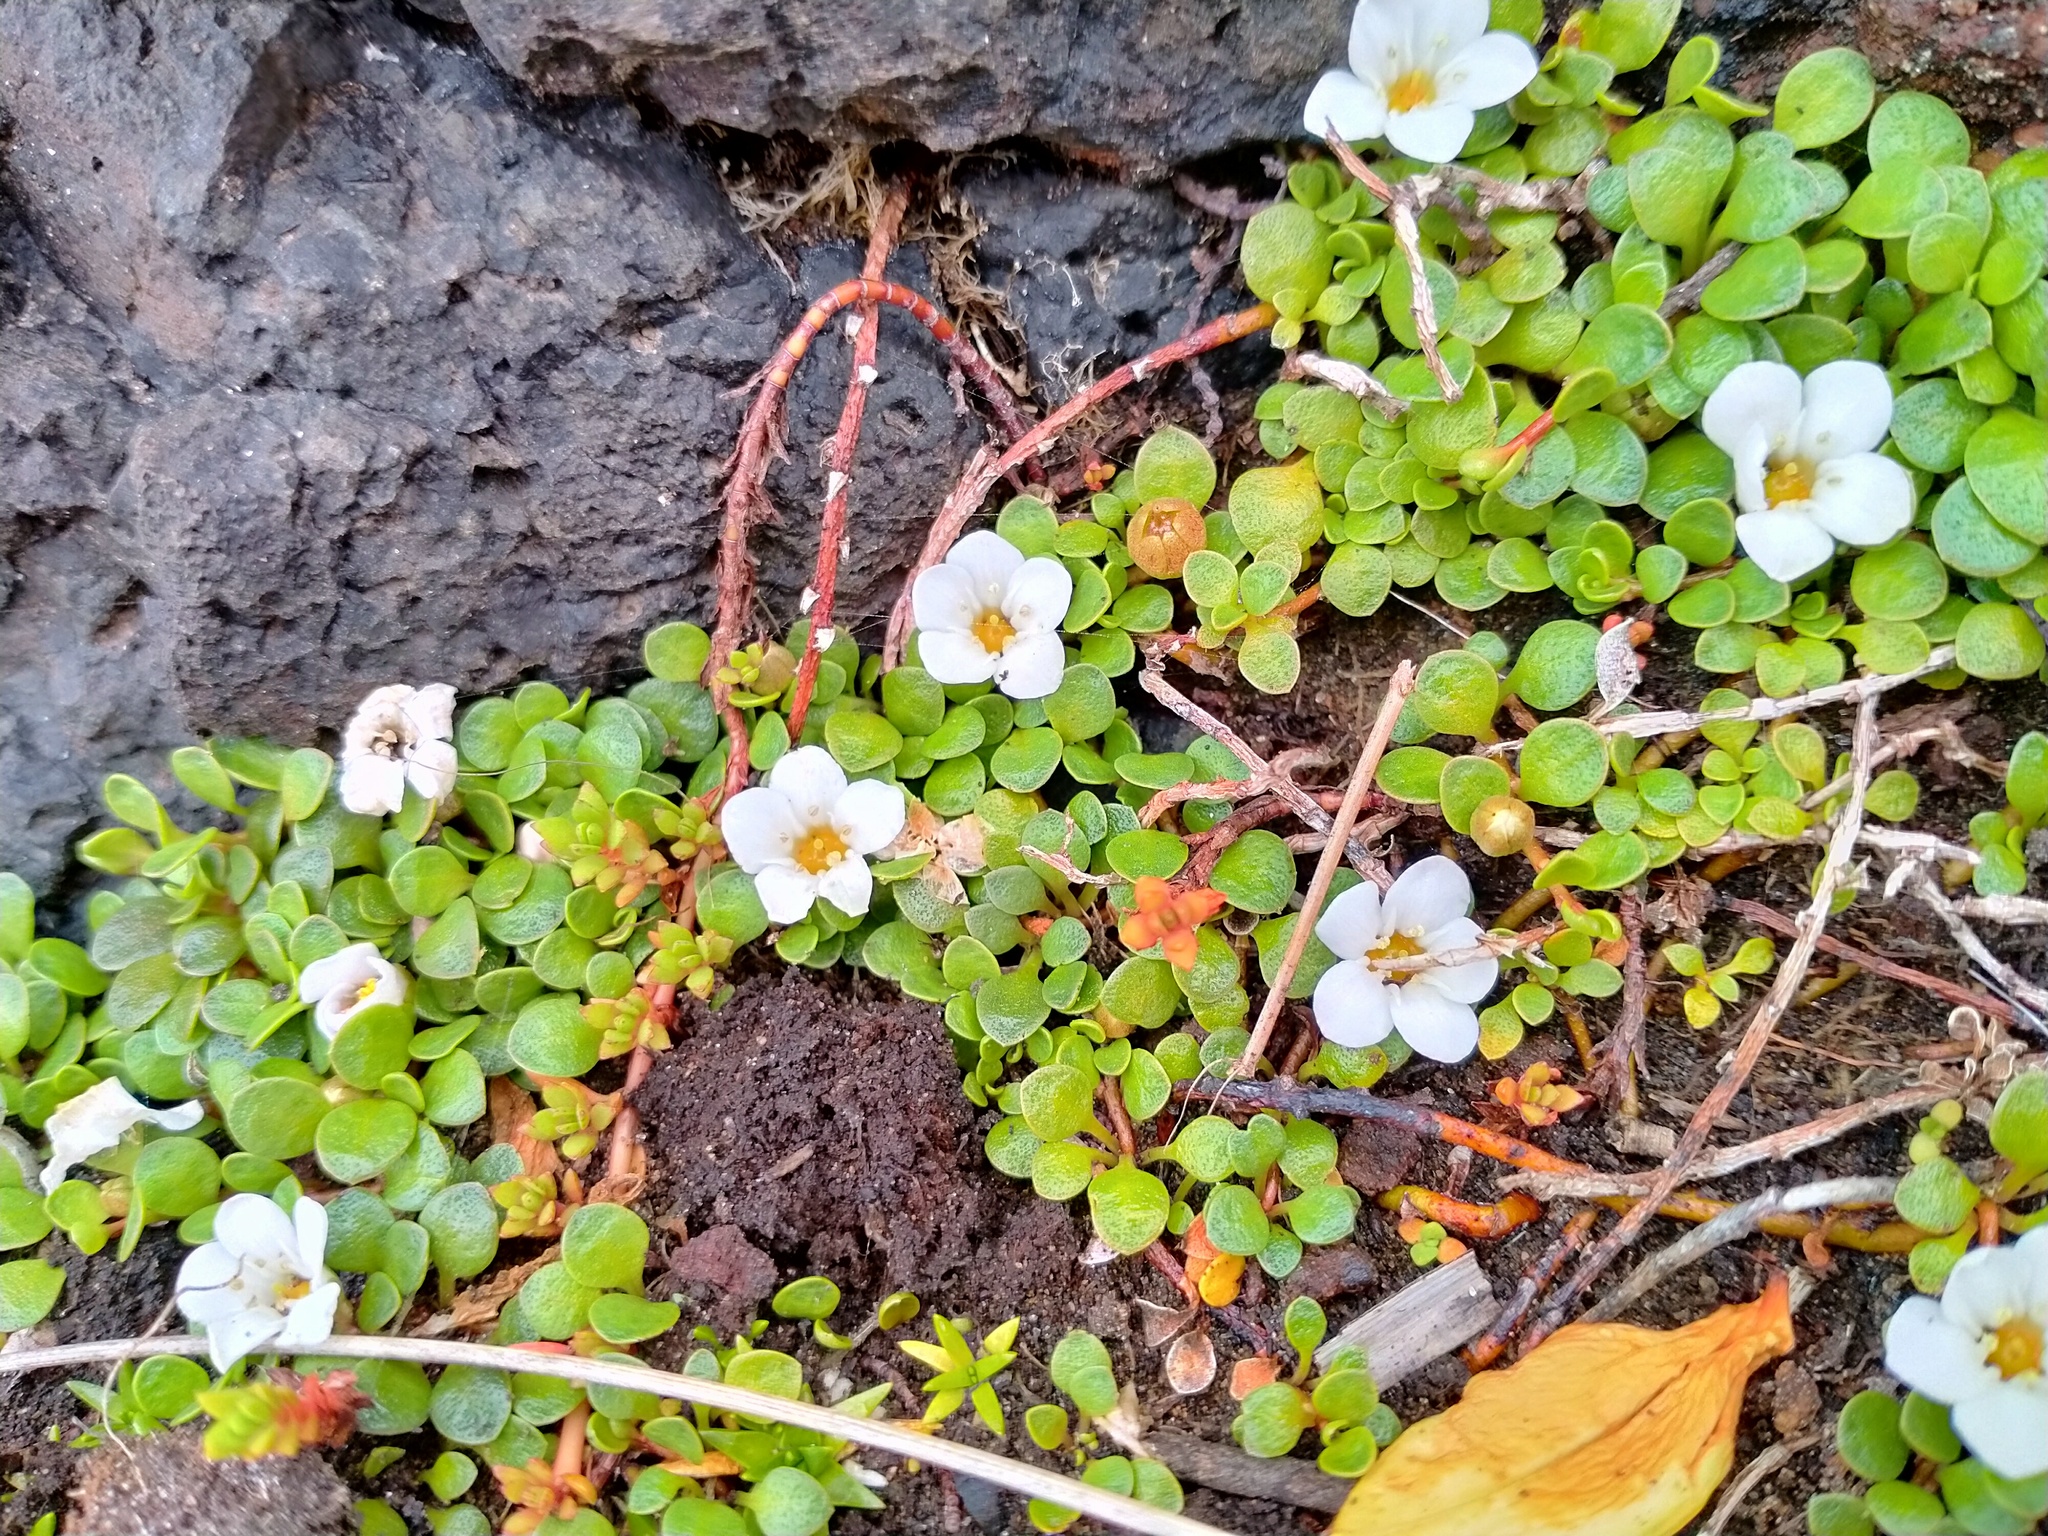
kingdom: Plantae
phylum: Tracheophyta
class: Magnoliopsida
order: Ericales
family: Primulaceae
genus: Samolus
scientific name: Samolus repens
